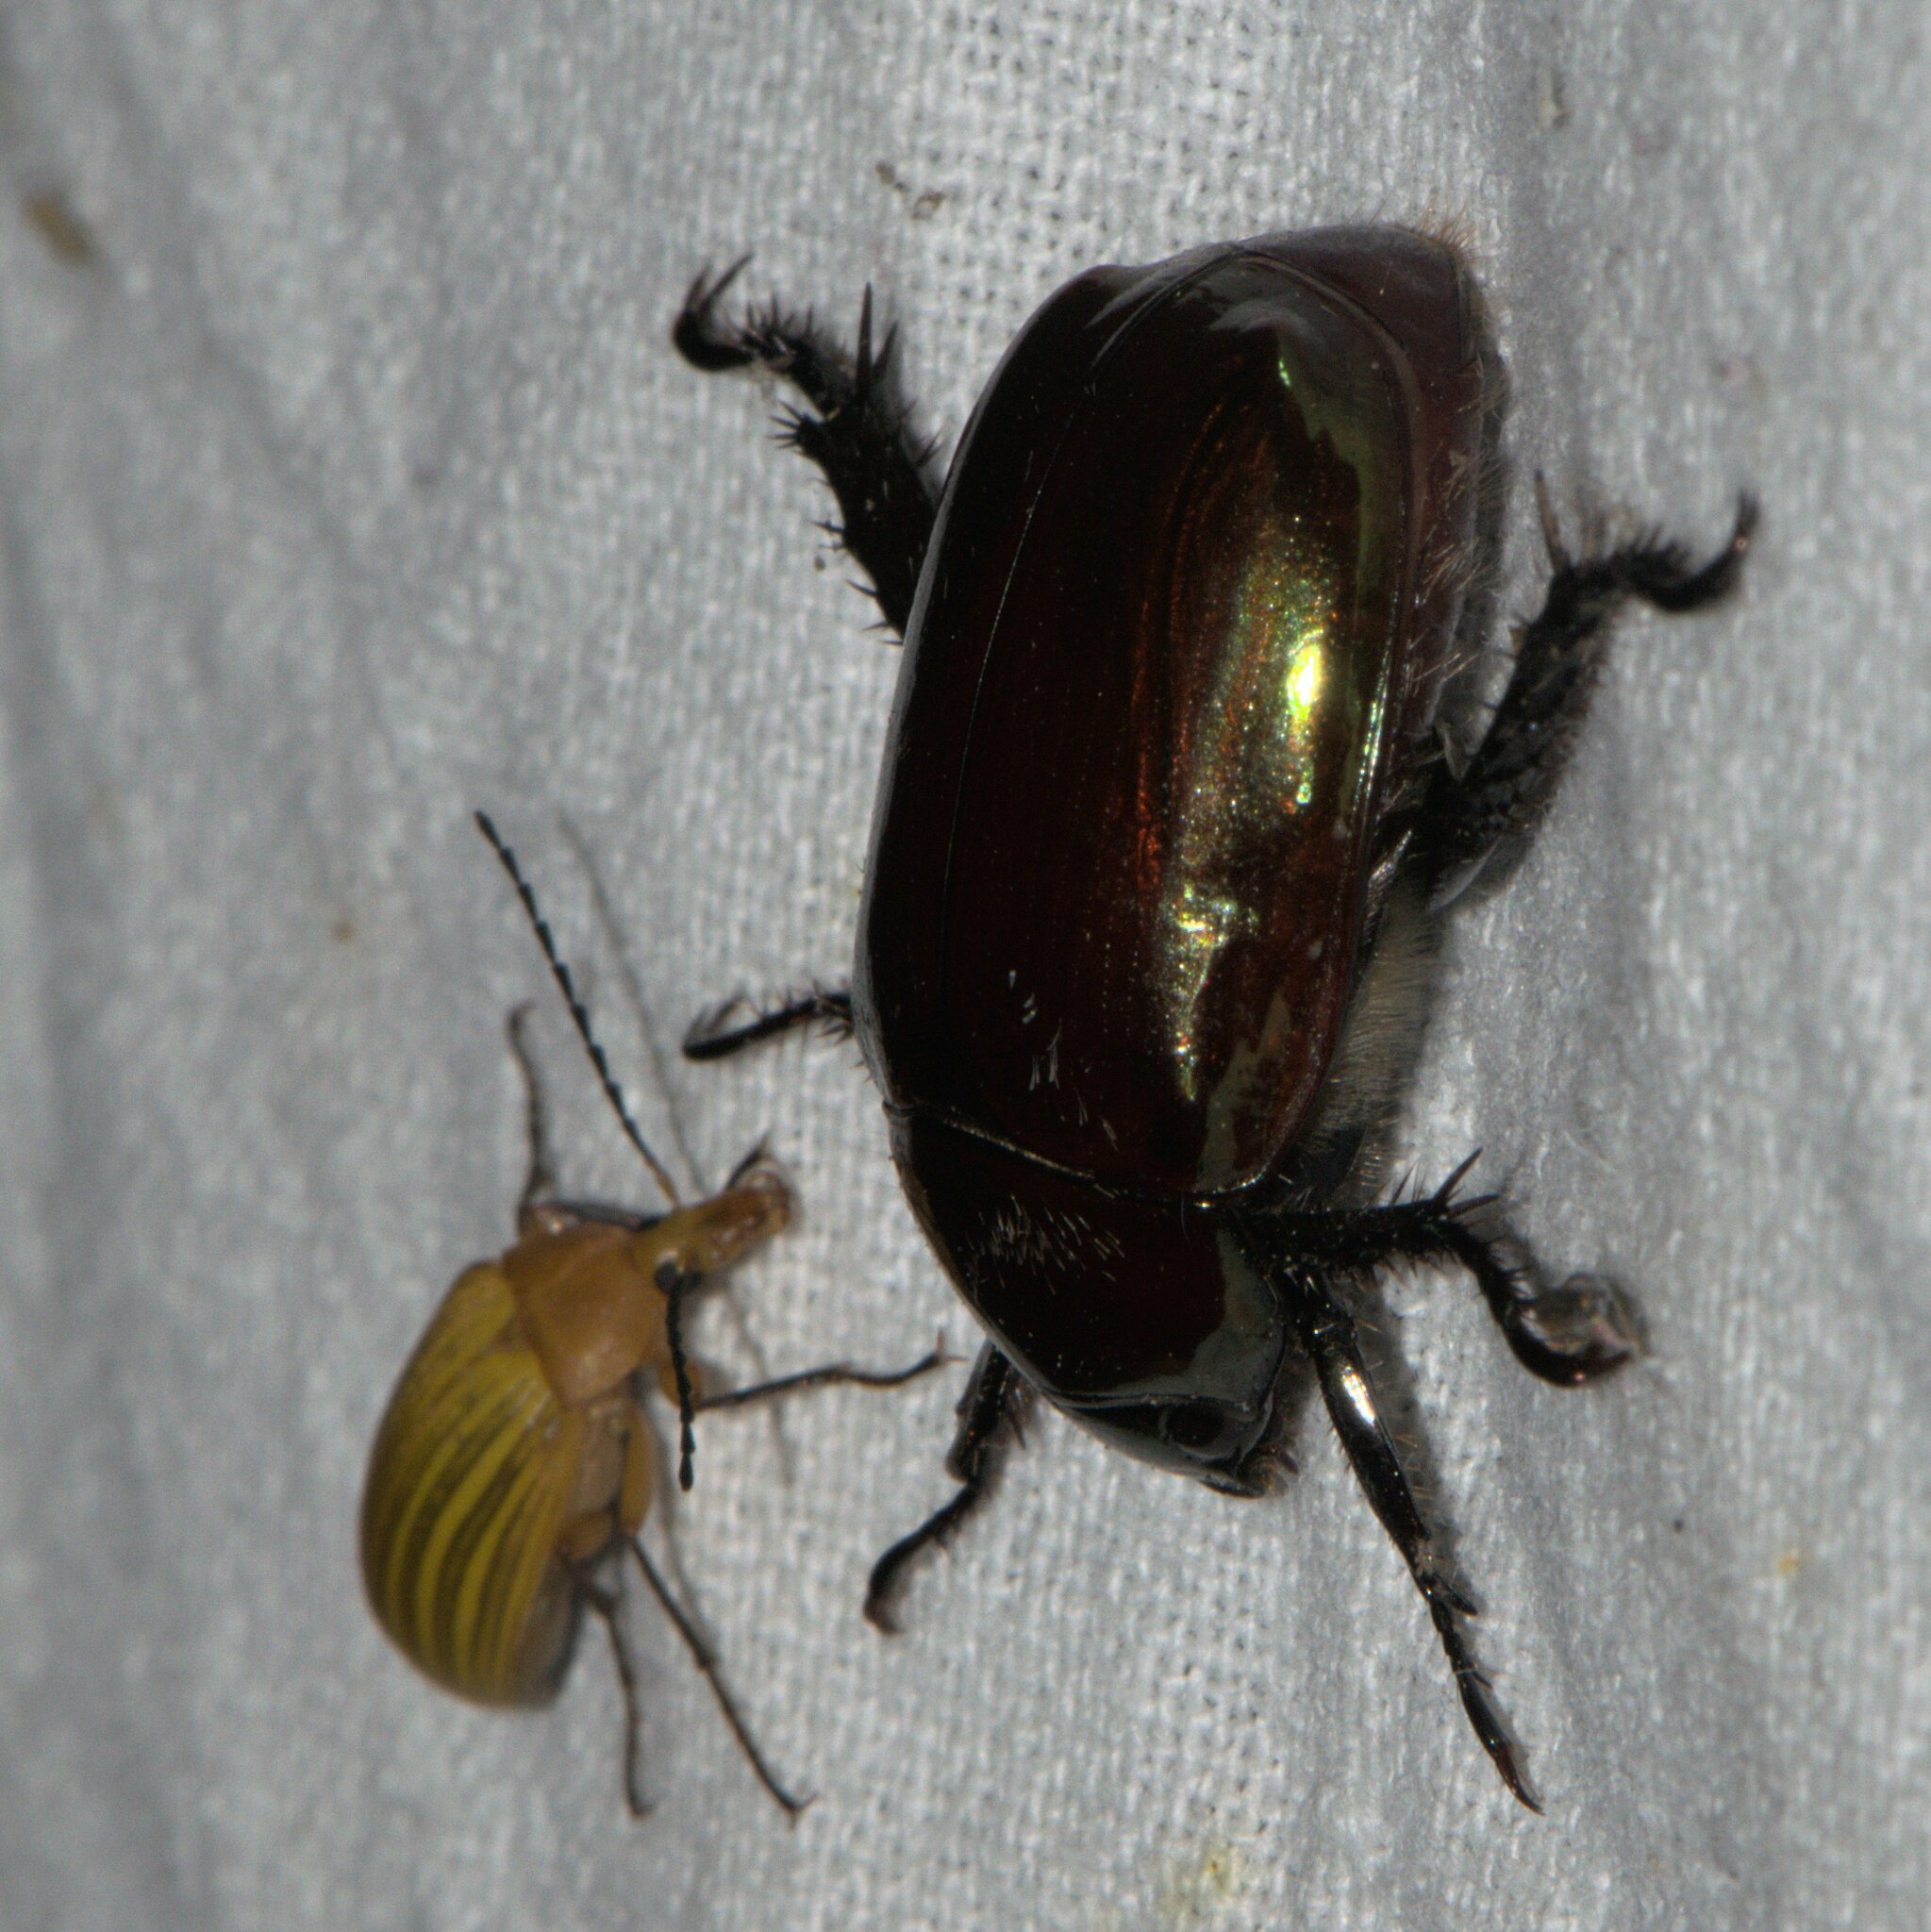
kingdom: Animalia
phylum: Arthropoda
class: Insecta
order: Coleoptera
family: Scarabaeidae
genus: Anomala
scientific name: Anomala rufiventris
